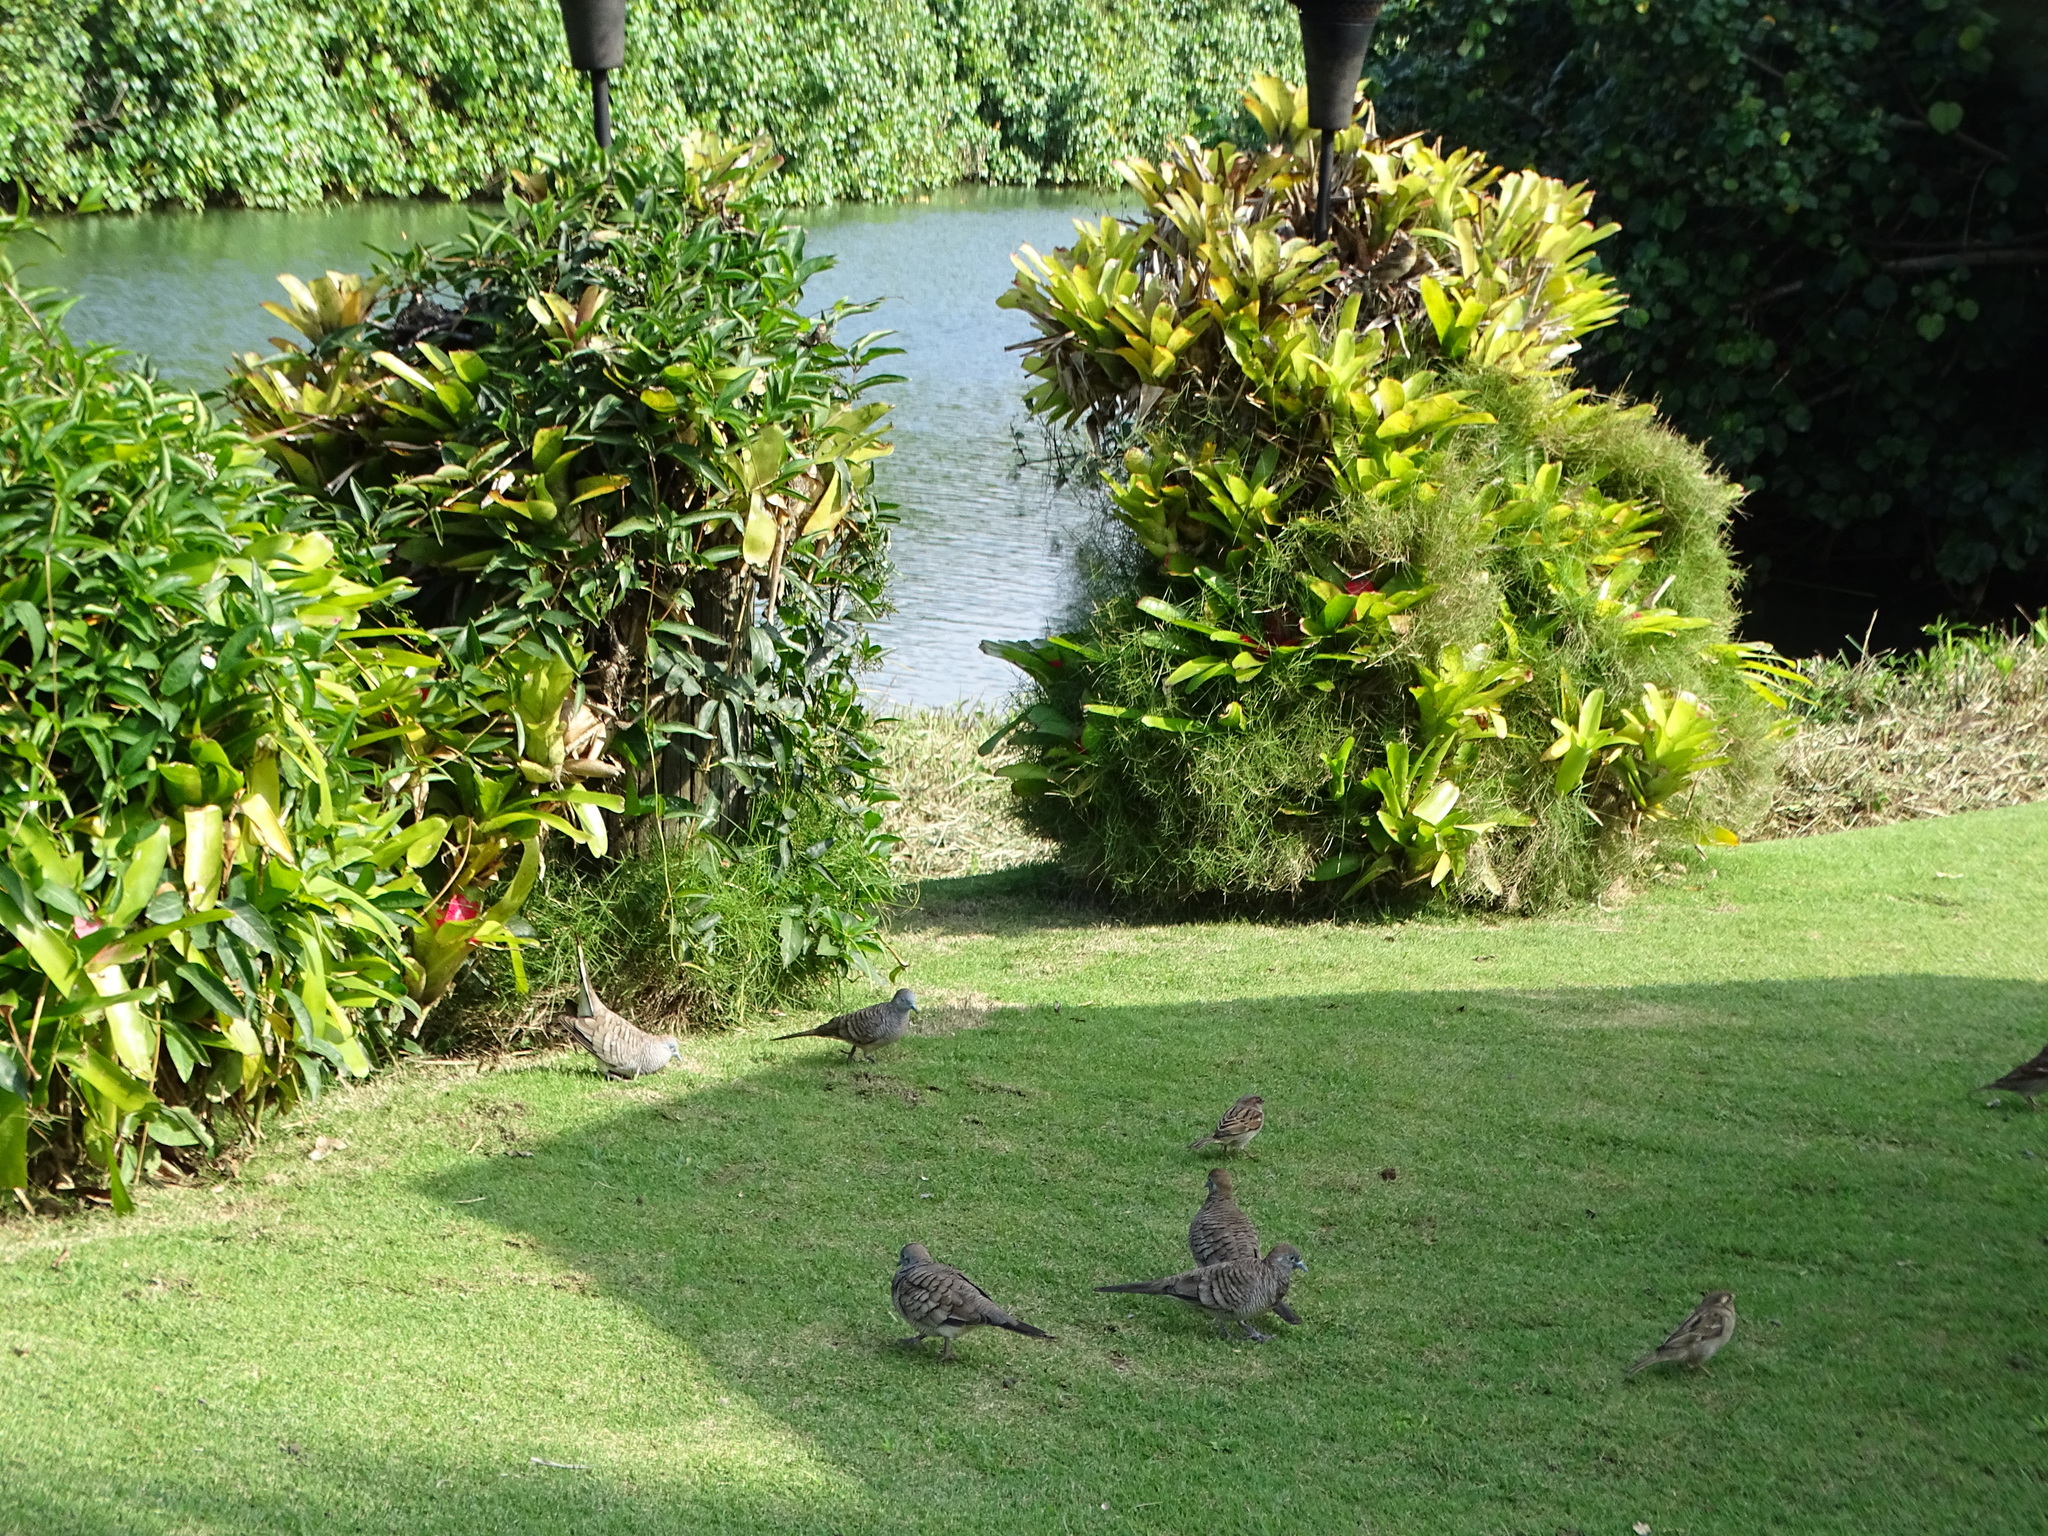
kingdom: Animalia
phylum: Chordata
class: Aves
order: Columbiformes
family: Columbidae
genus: Geopelia
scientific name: Geopelia striata
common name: Zebra dove
